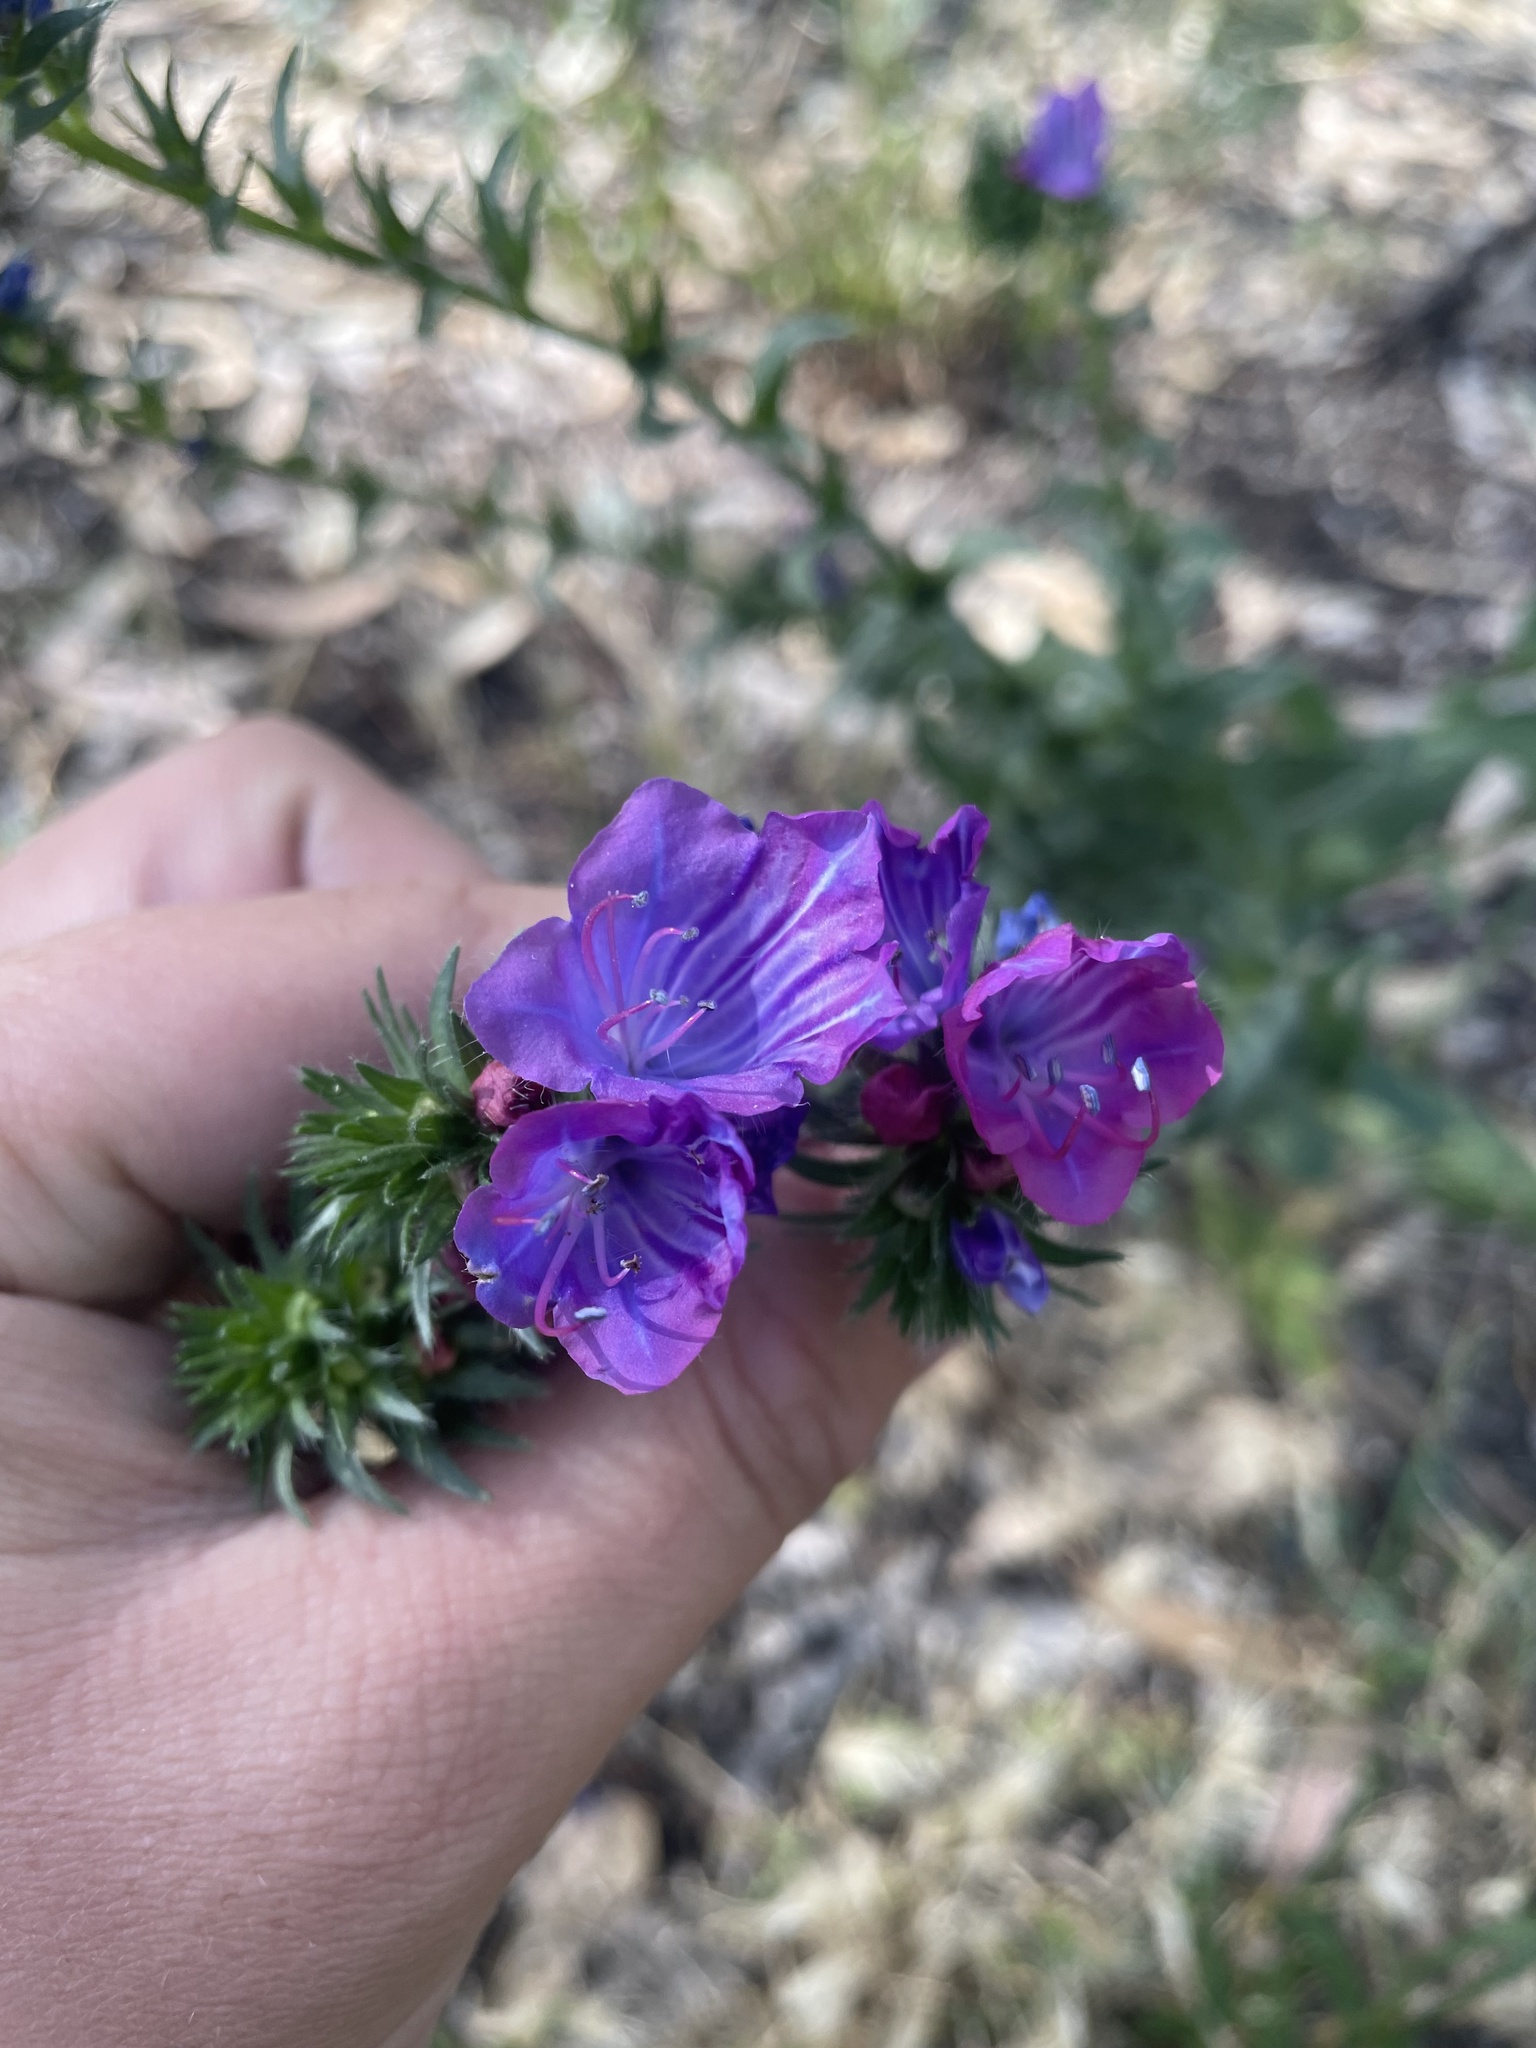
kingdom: Plantae
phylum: Tracheophyta
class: Magnoliopsida
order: Boraginales
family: Boraginaceae
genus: Echium
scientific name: Echium plantagineum
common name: Purple viper's-bugloss
